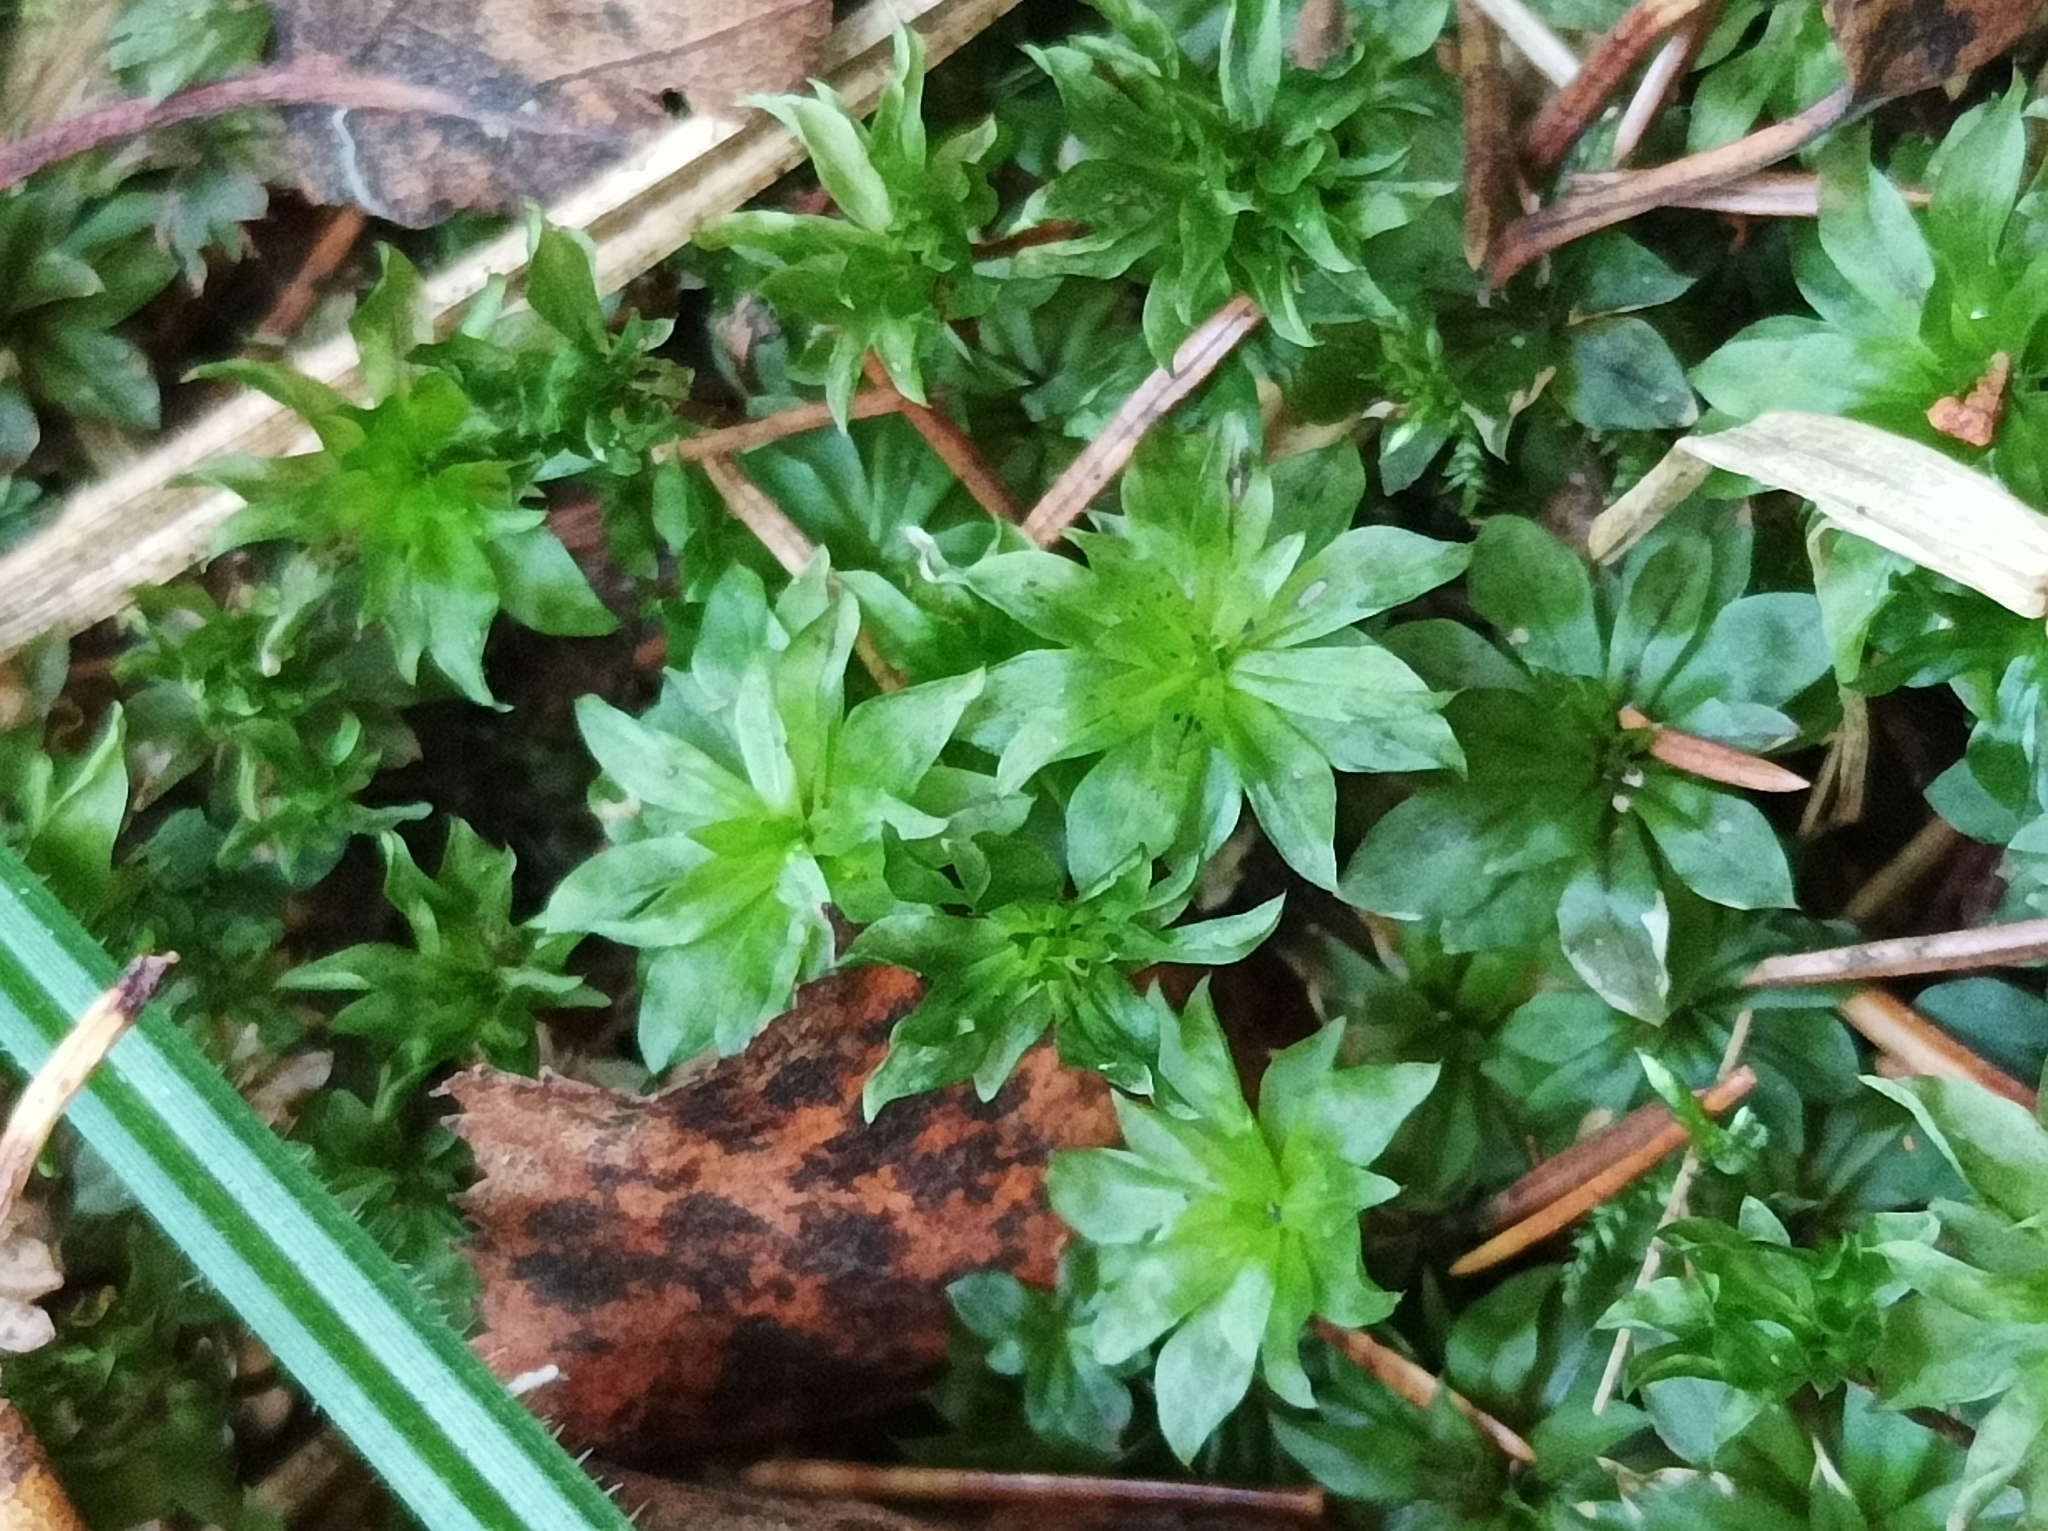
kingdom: Plantae
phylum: Bryophyta
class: Bryopsida
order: Bryales
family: Bryaceae
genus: Rhodobryum
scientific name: Rhodobryum roseum
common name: Rose-moss
